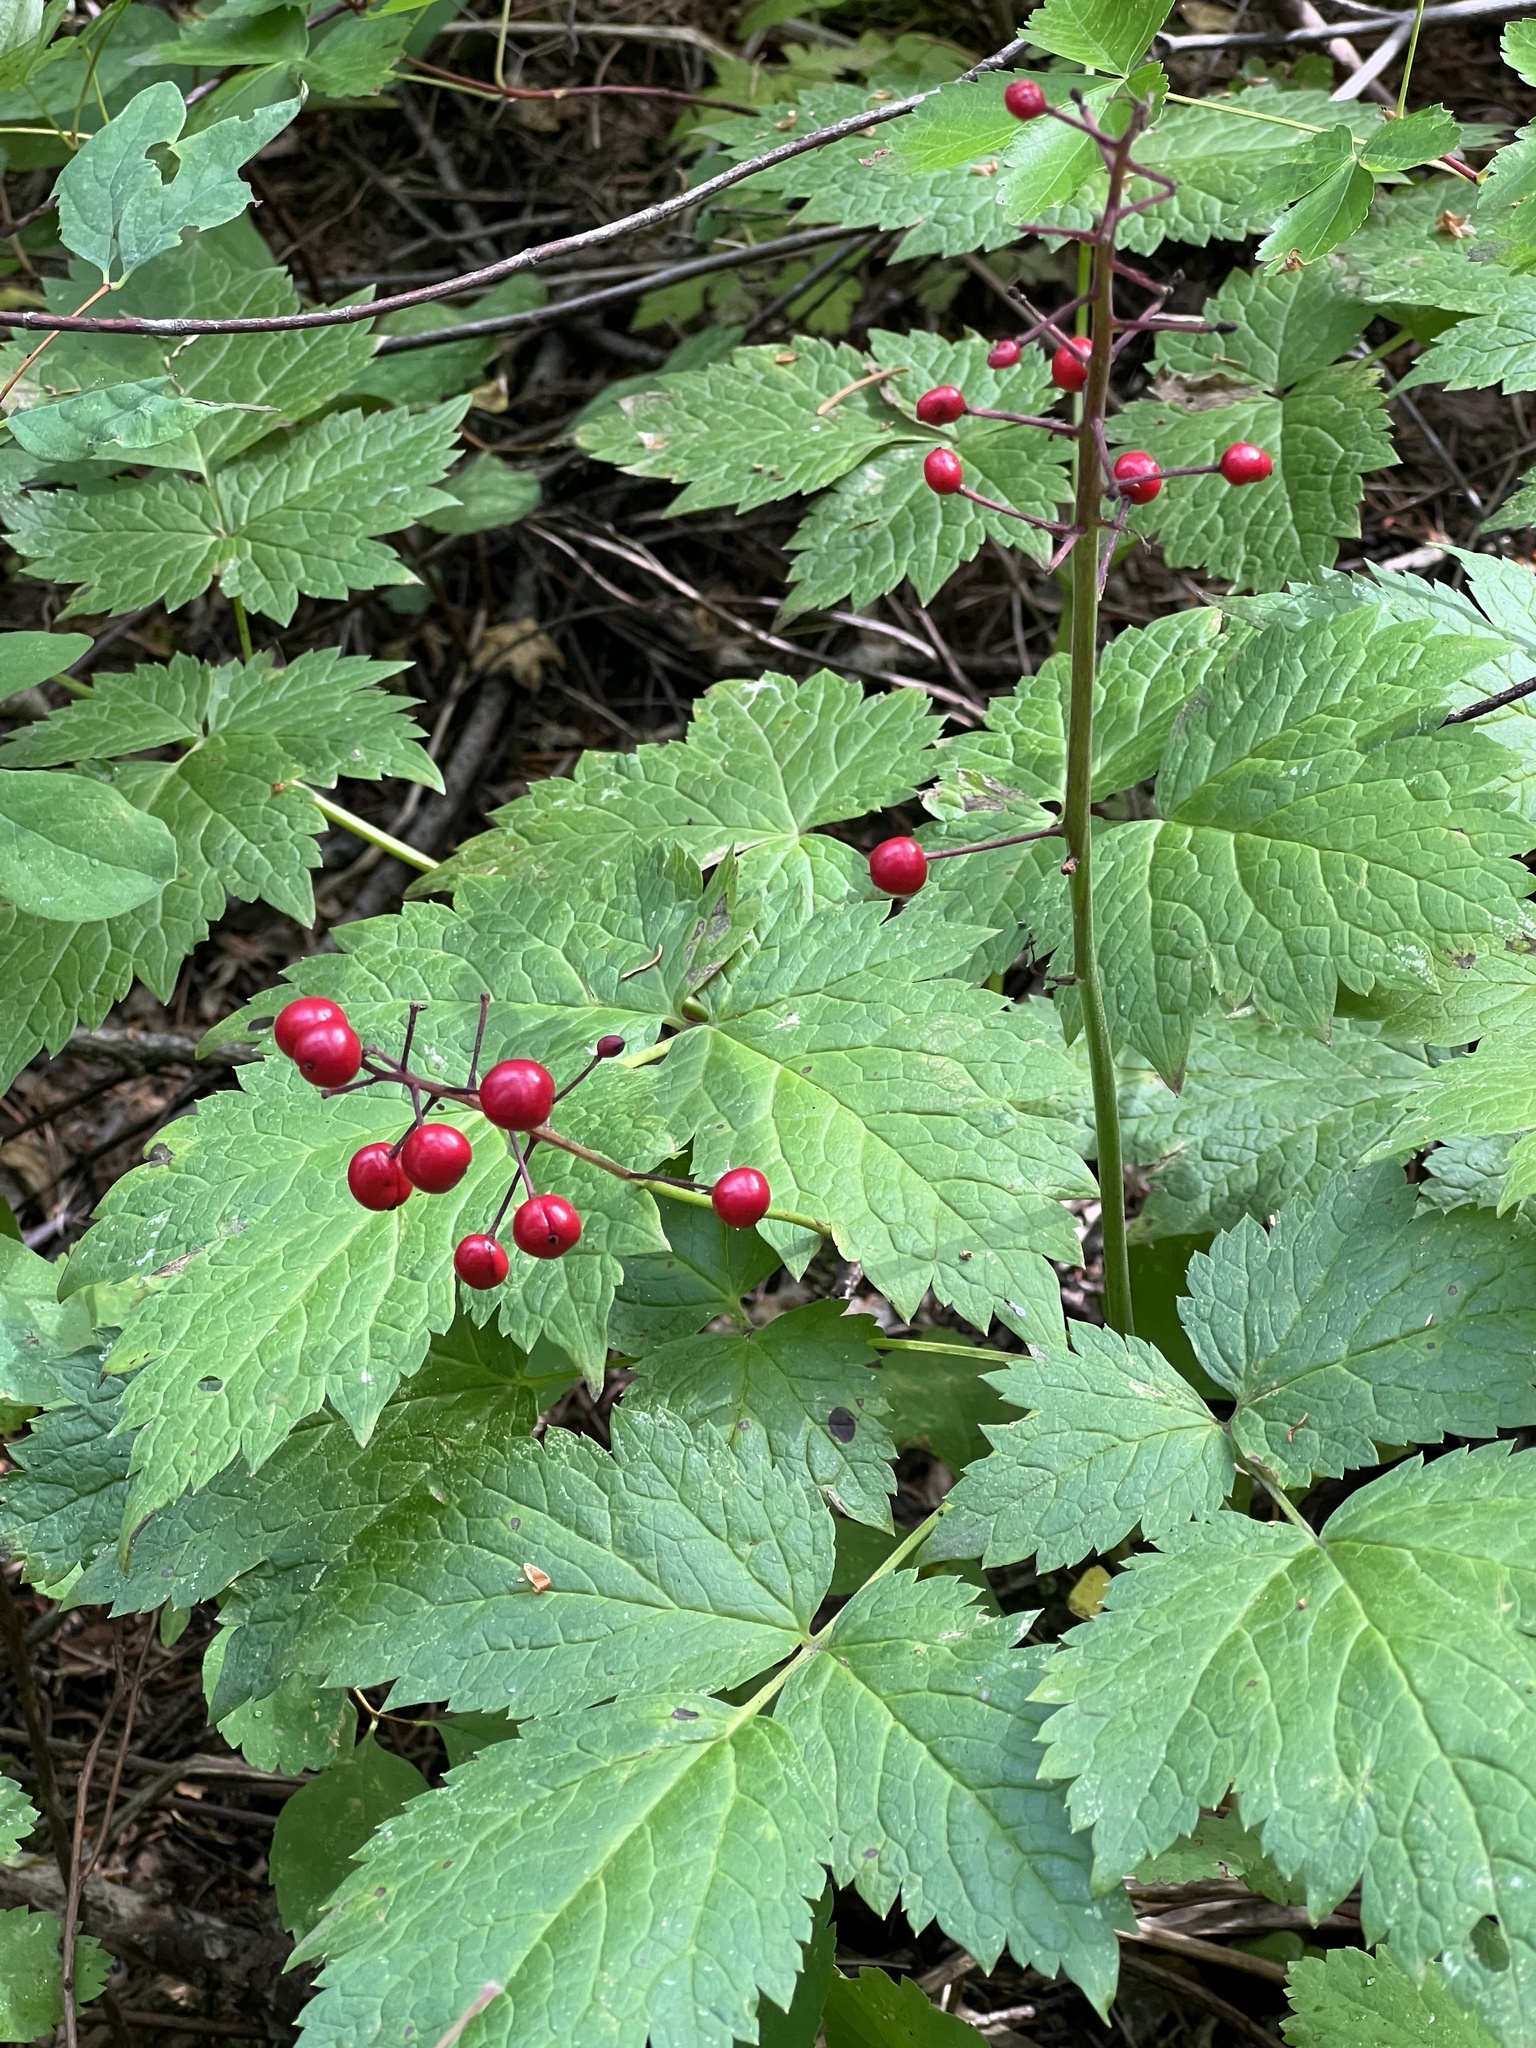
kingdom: Plantae
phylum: Tracheophyta
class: Magnoliopsida
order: Ranunculales
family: Ranunculaceae
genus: Actaea
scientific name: Actaea rubra
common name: Red baneberry
